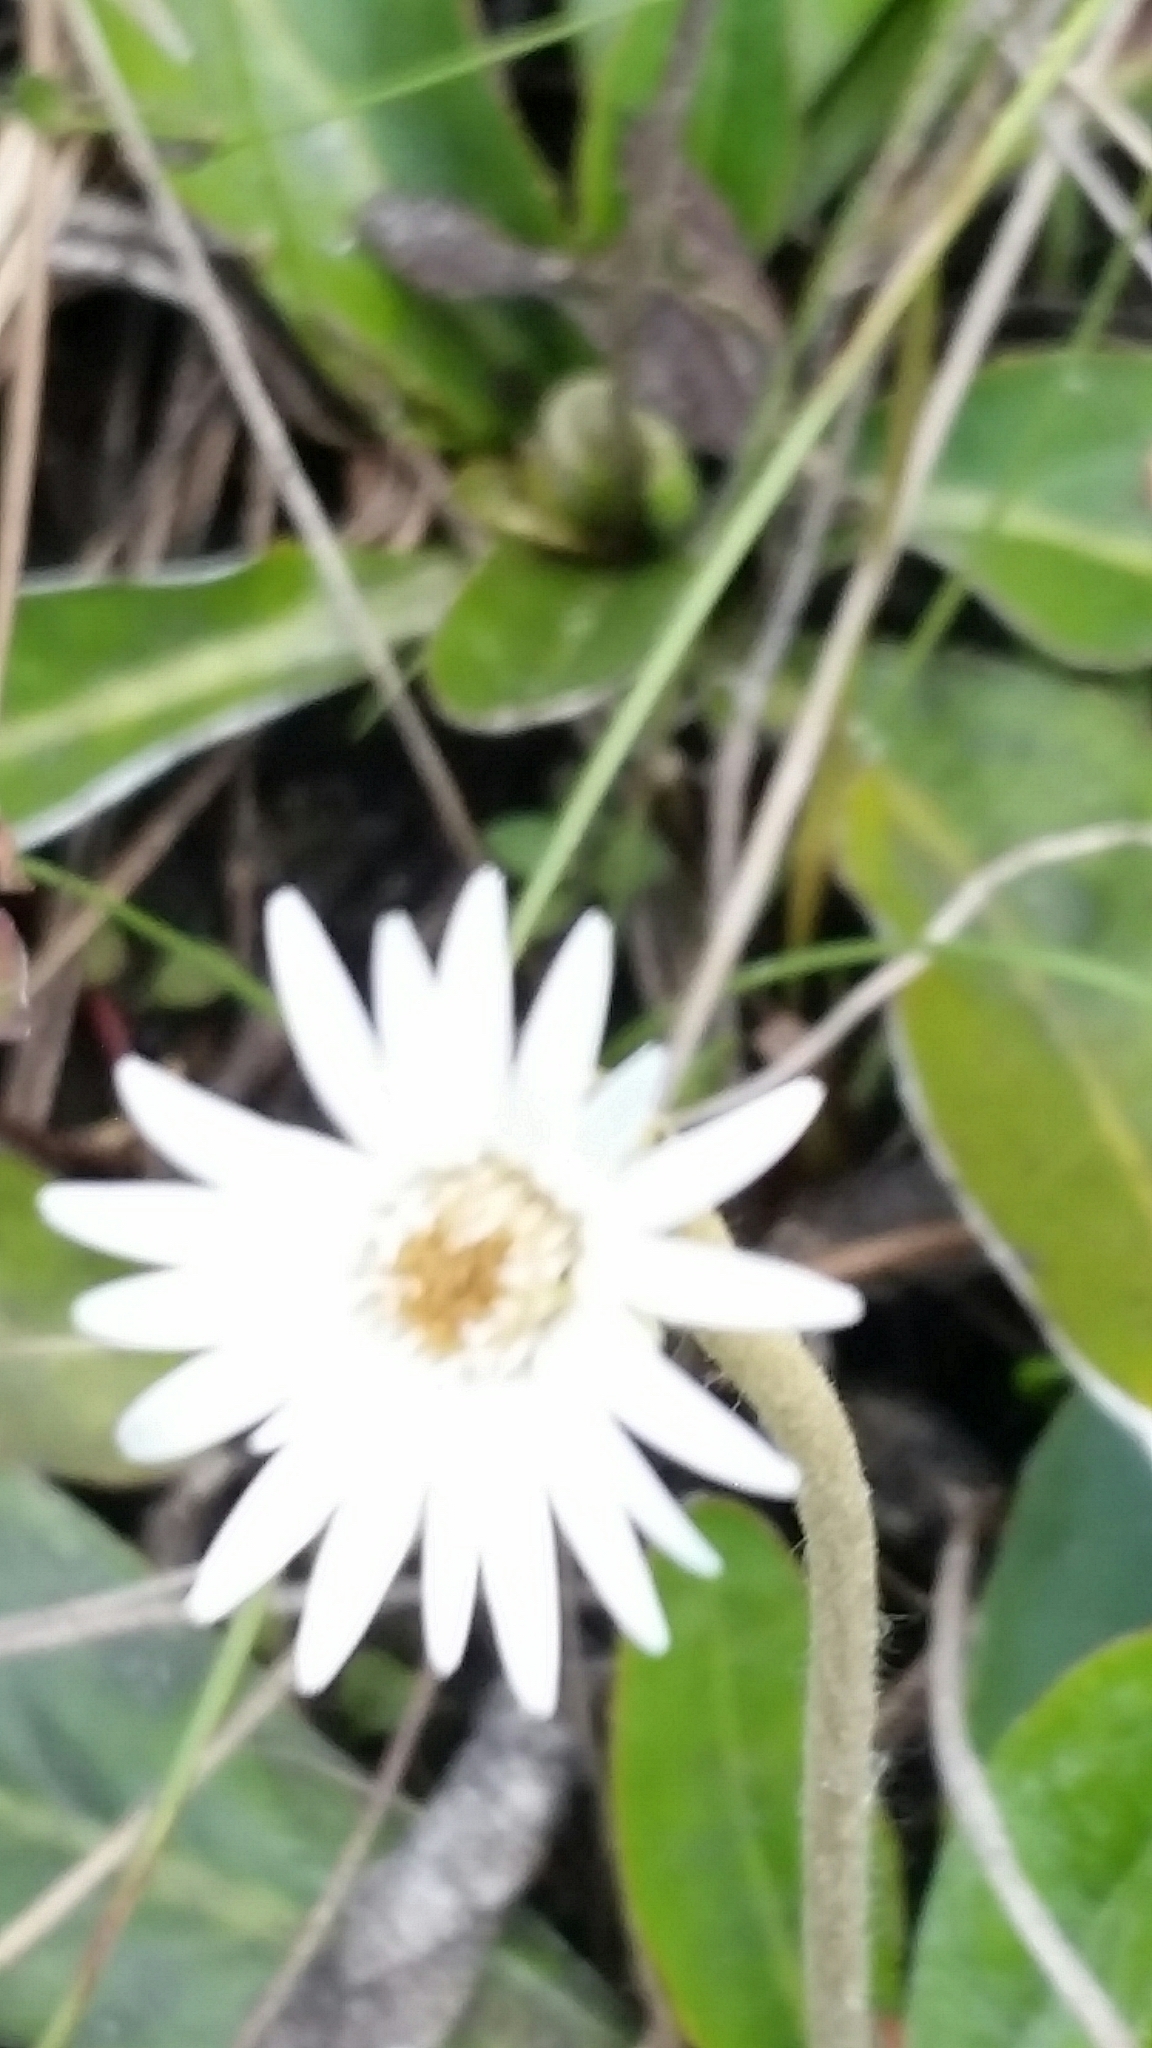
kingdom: Plantae
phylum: Tracheophyta
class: Magnoliopsida
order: Asterales
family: Asteraceae
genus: Chaptalia
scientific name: Chaptalia tomentosa
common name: Woolly sunbonnet
